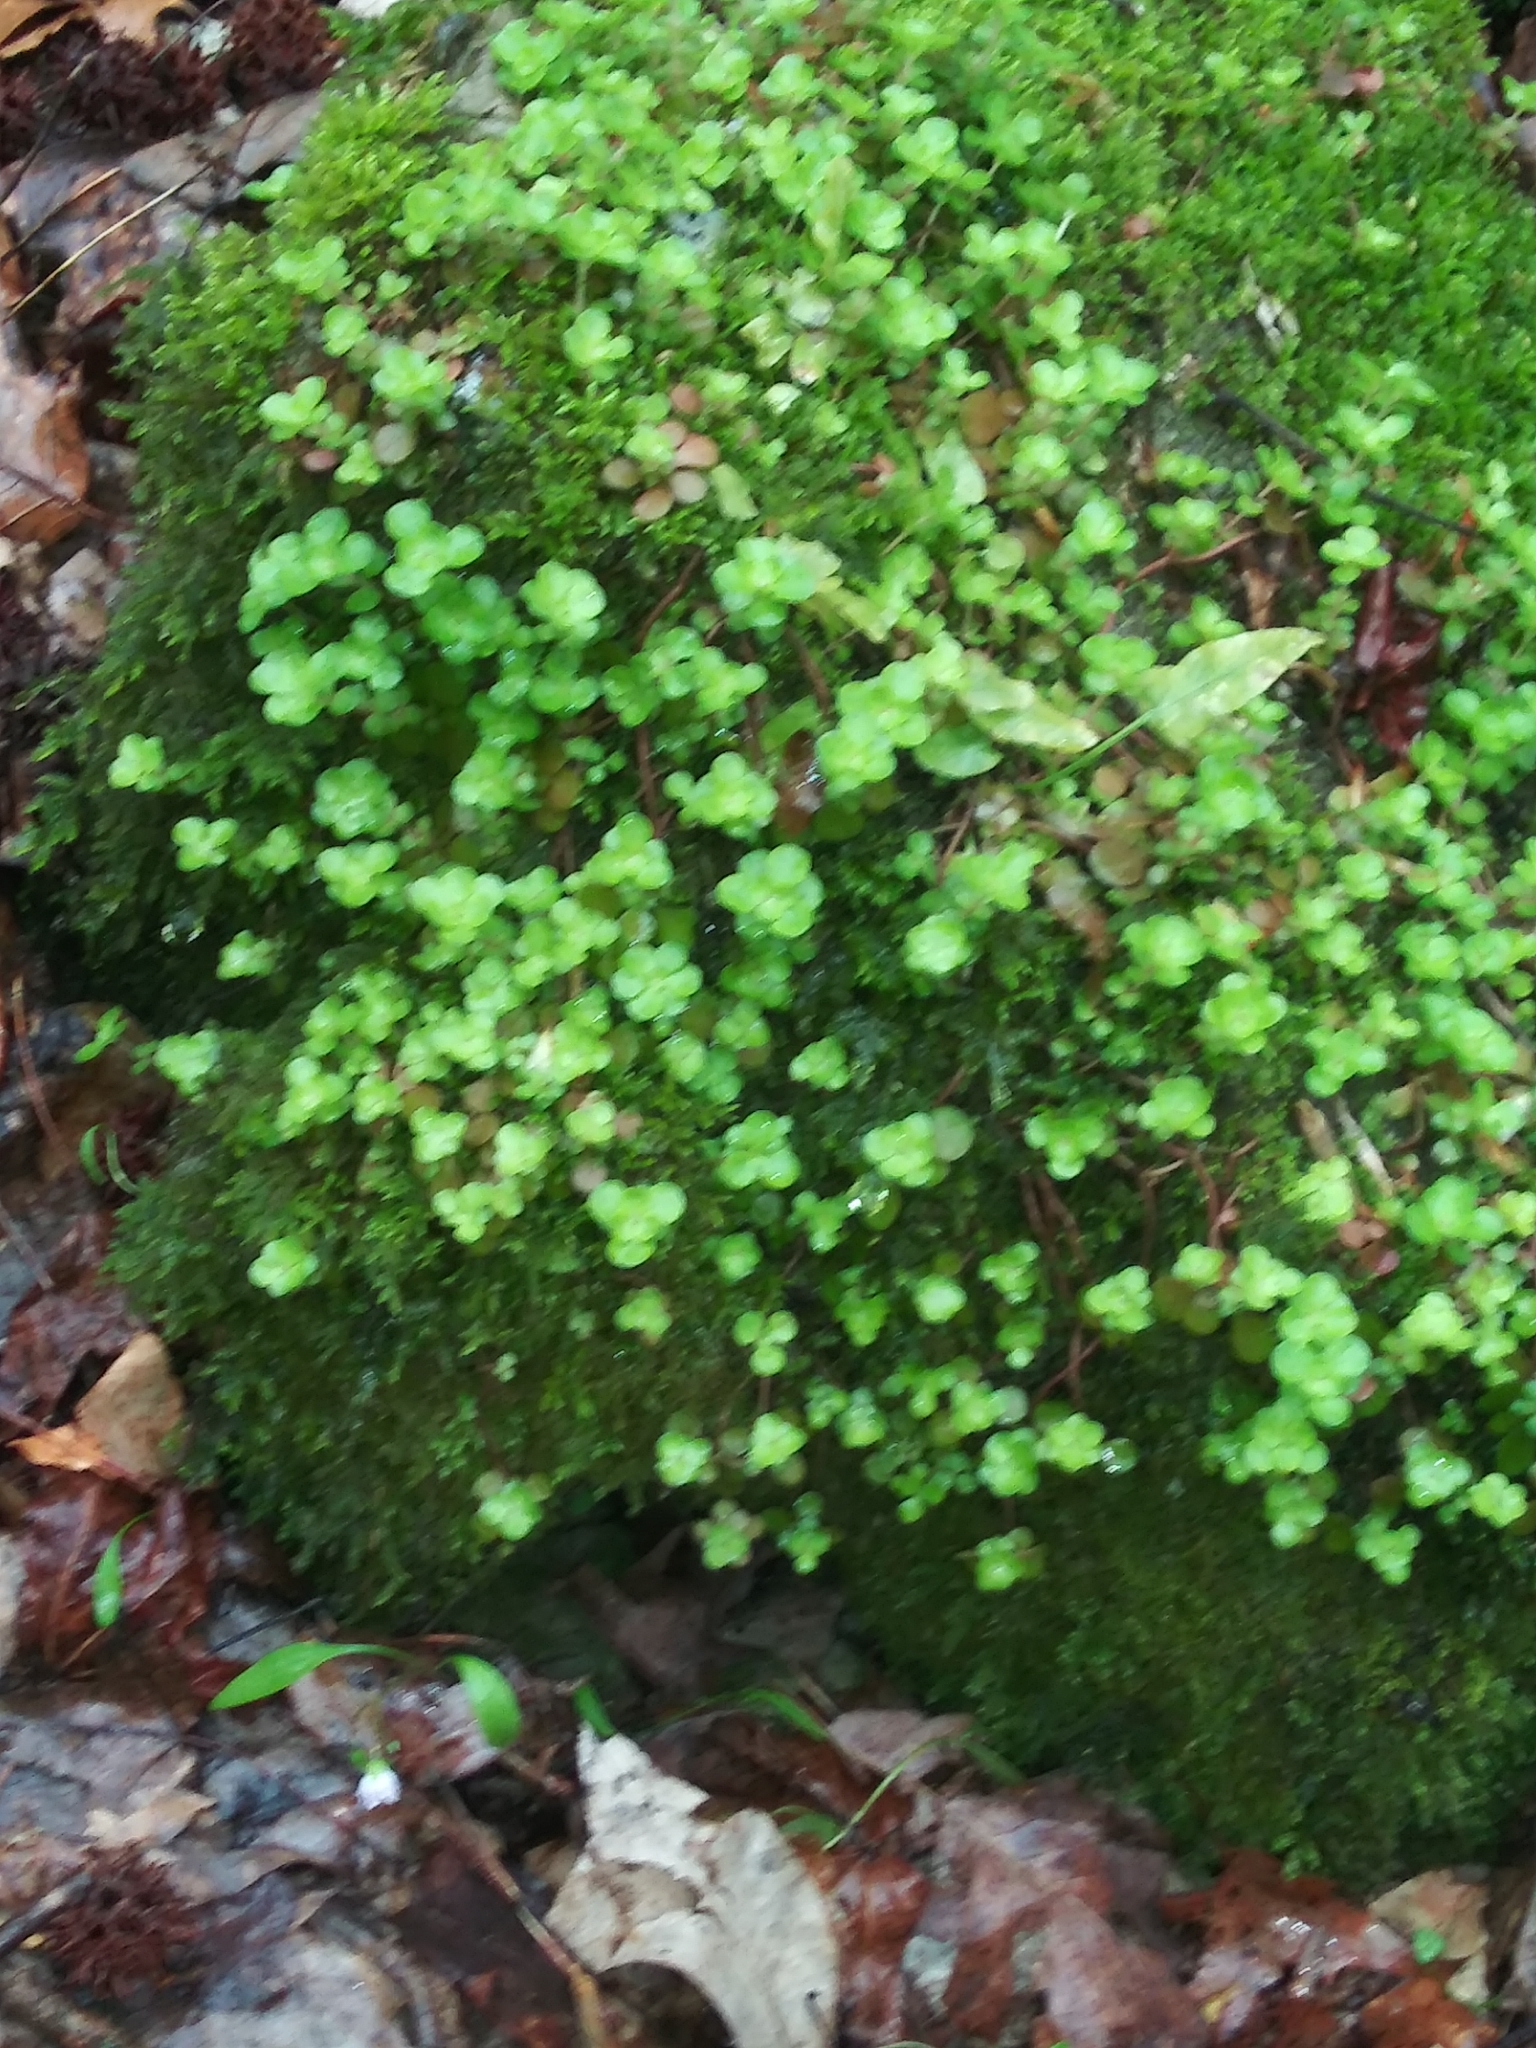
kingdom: Plantae
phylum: Tracheophyta
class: Magnoliopsida
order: Saxifragales
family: Crassulaceae
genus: Sedum
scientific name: Sedum ternatum
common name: Wild stonecrop
